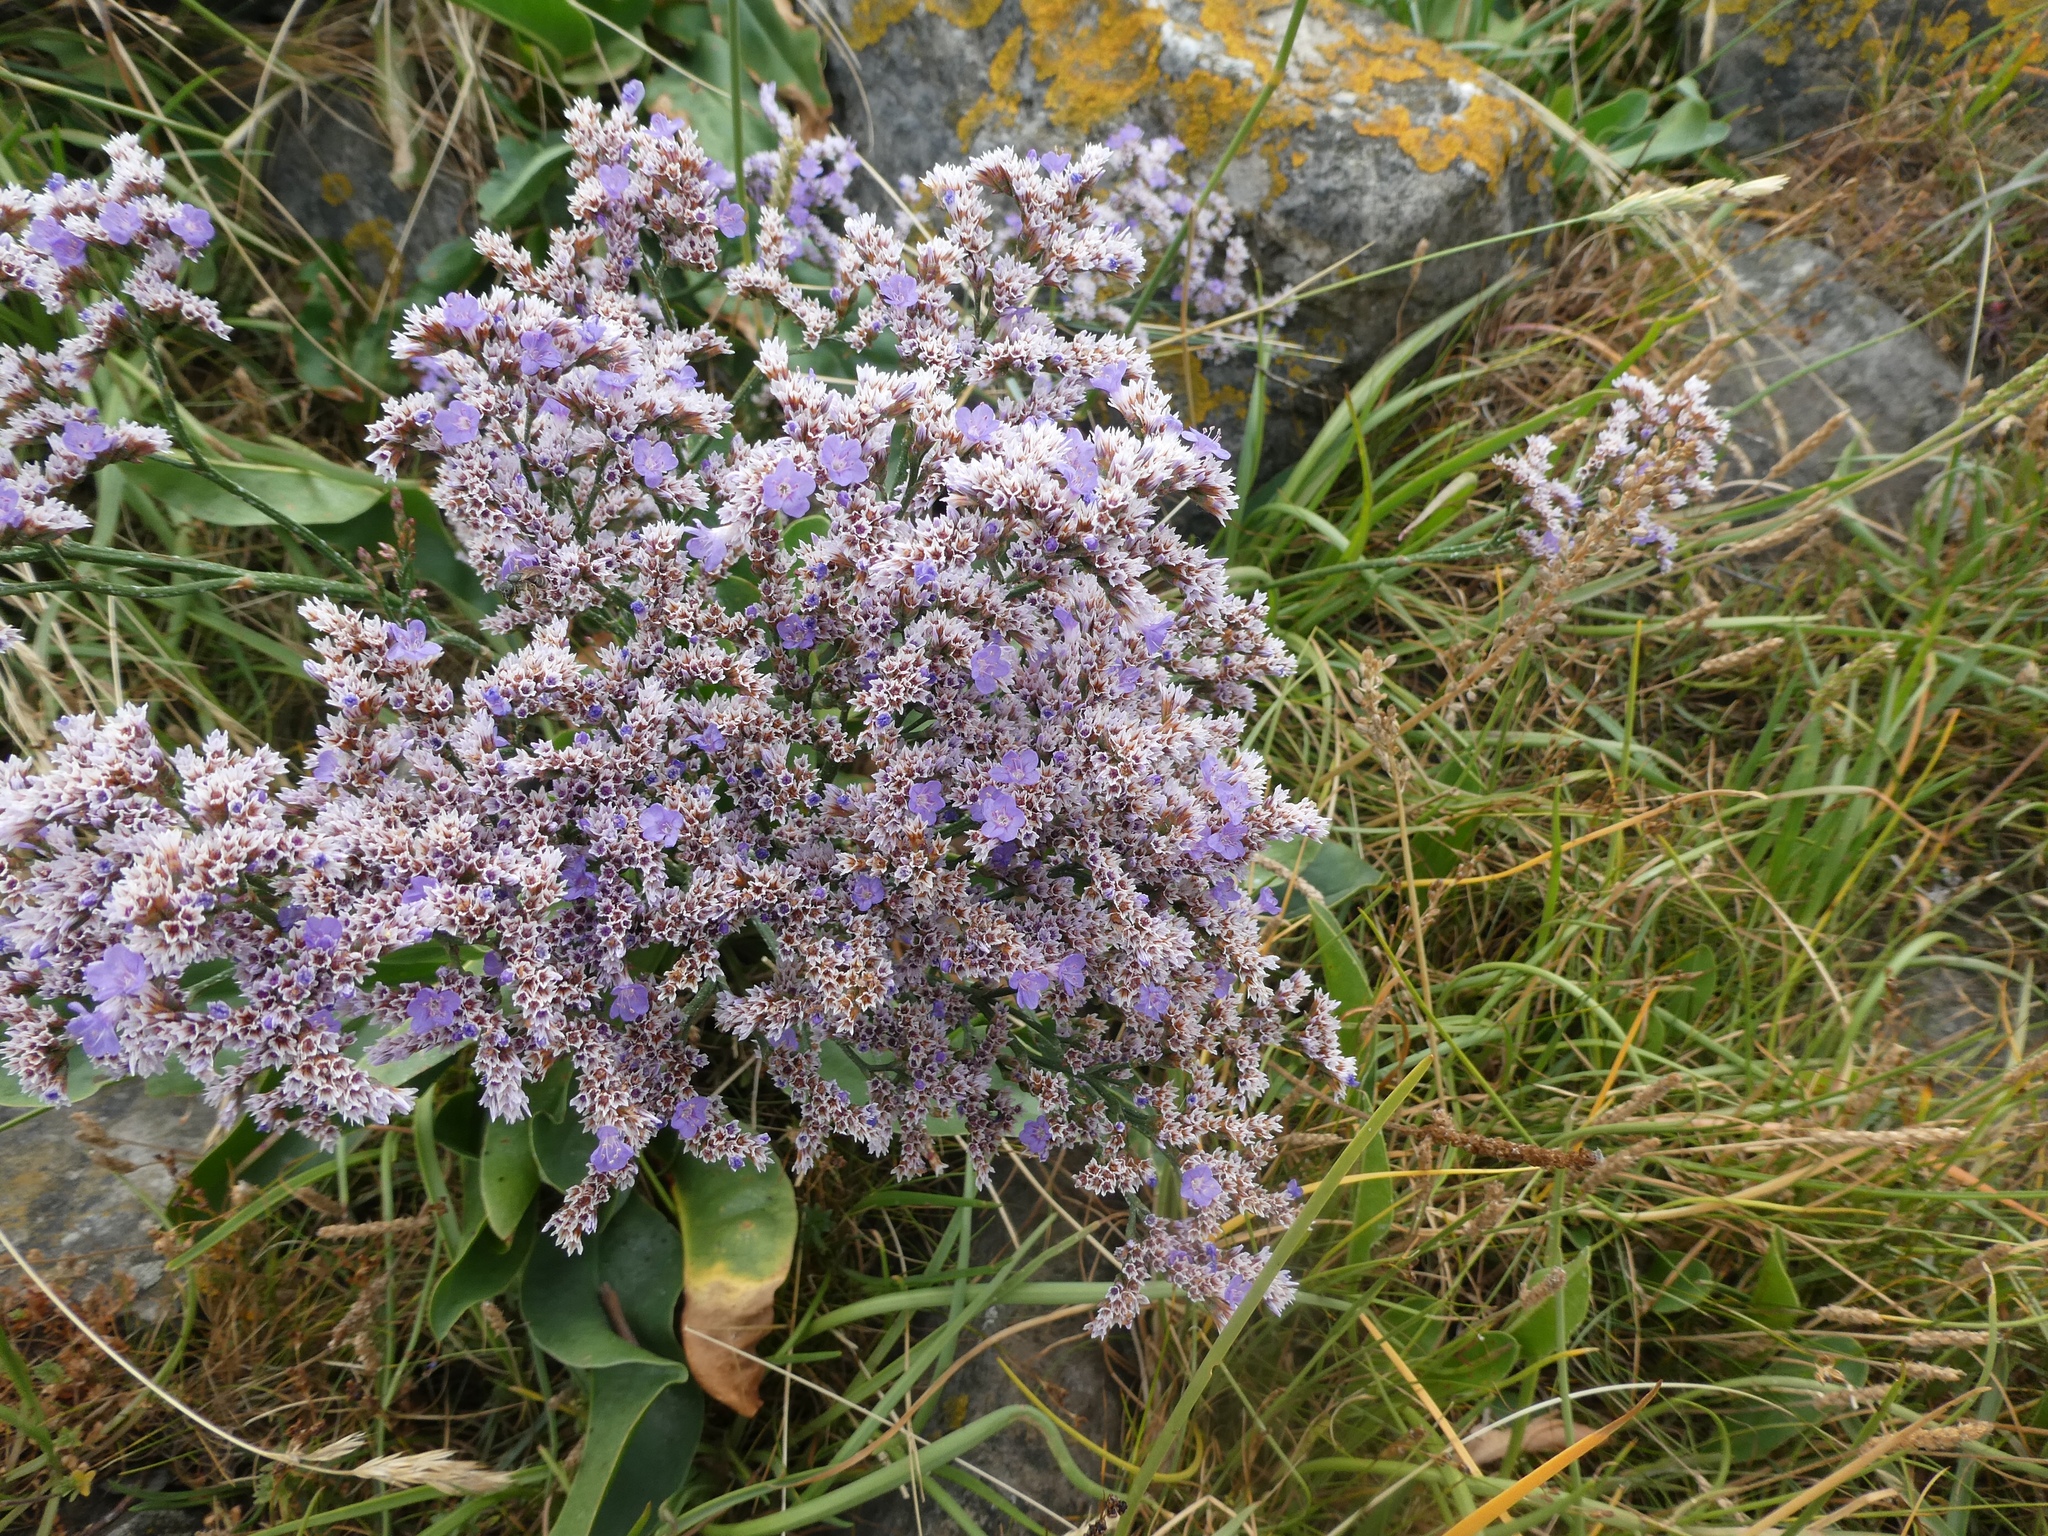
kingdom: Plantae
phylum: Tracheophyta
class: Magnoliopsida
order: Caryophyllales
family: Plumbaginaceae
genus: Limonium
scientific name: Limonium vulgare
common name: Common sea-lavender
